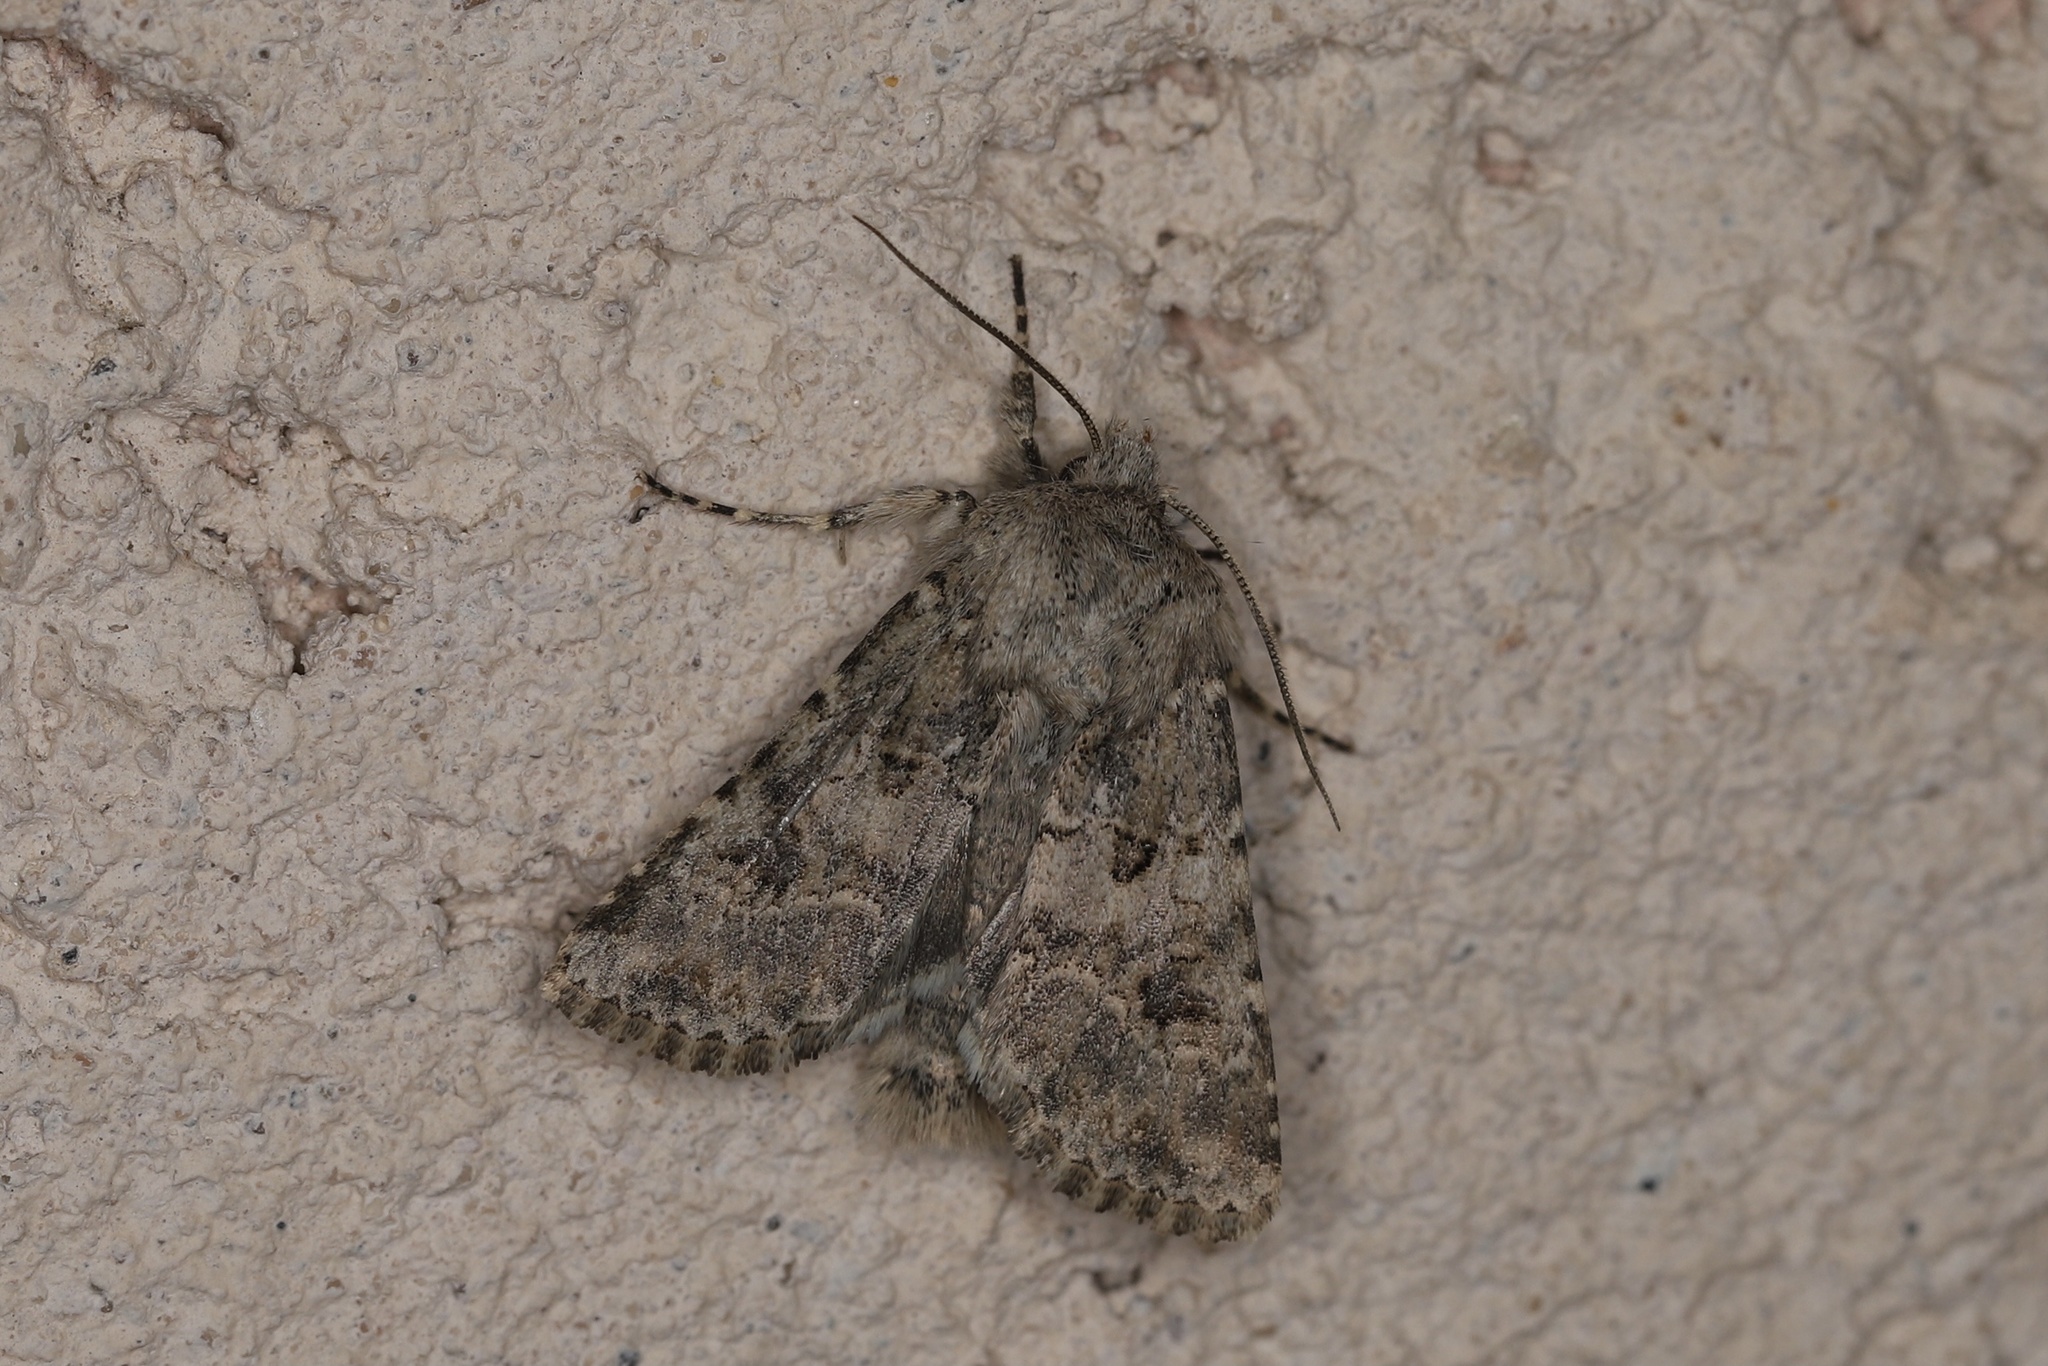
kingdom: Animalia
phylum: Arthropoda
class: Insecta
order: Lepidoptera
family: Noctuidae
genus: Anarta
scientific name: Anarta sodae
